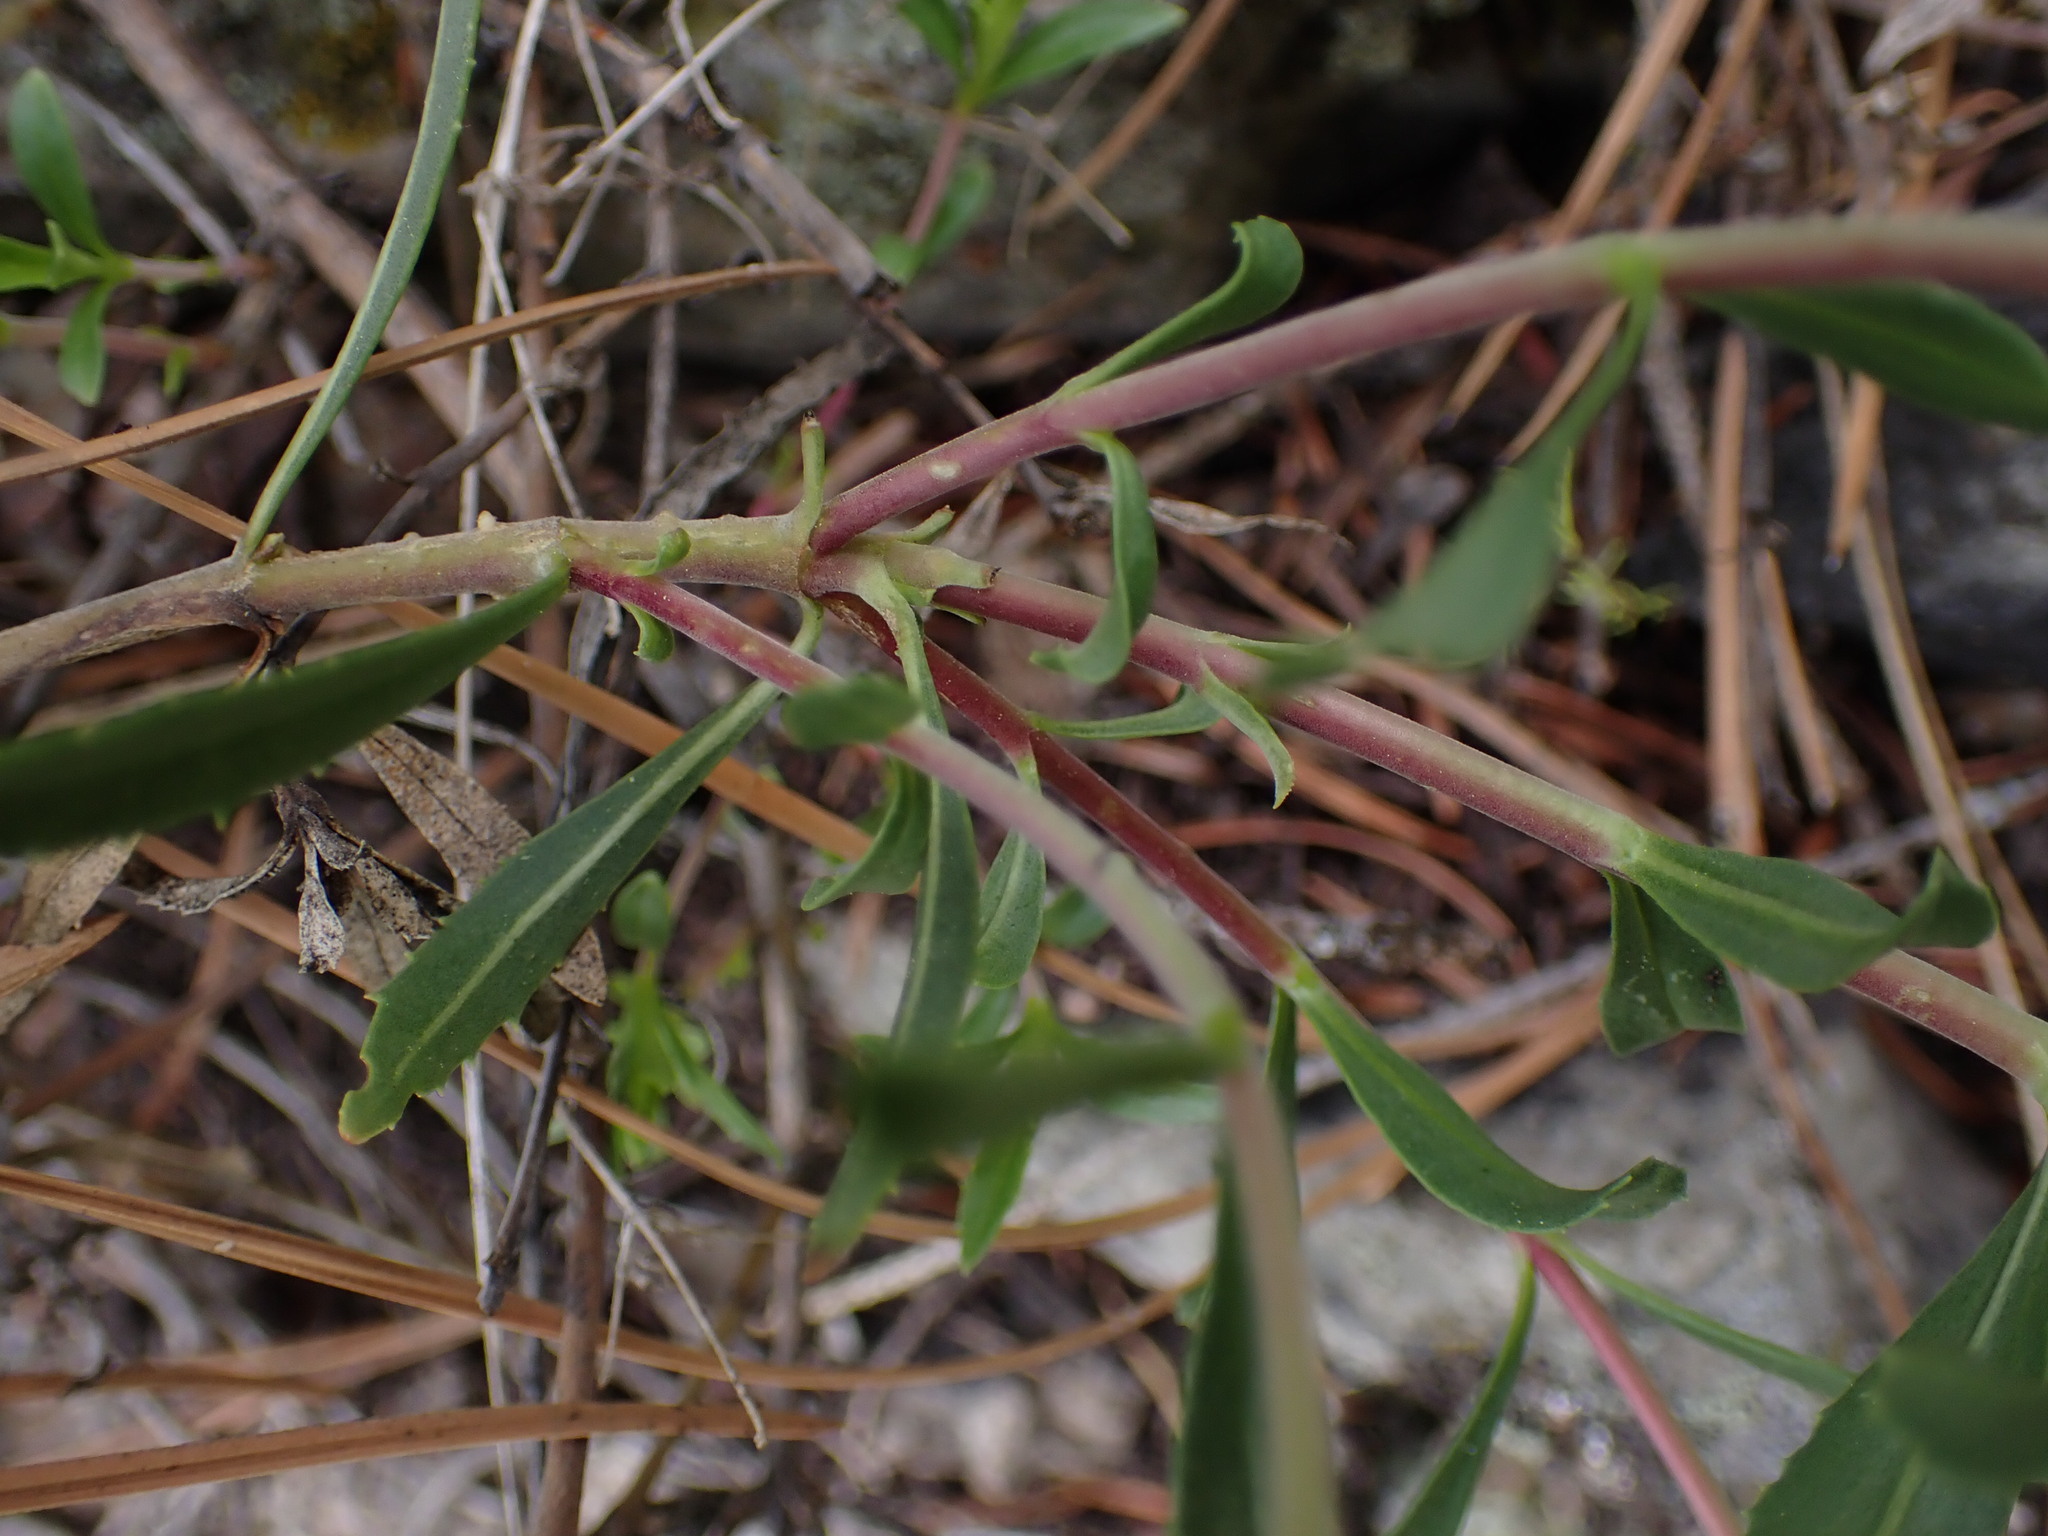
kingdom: Plantae
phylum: Tracheophyta
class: Magnoliopsida
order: Lamiales
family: Plantaginaceae
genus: Penstemon
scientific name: Penstemon fruticosus
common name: Bush penstemon
